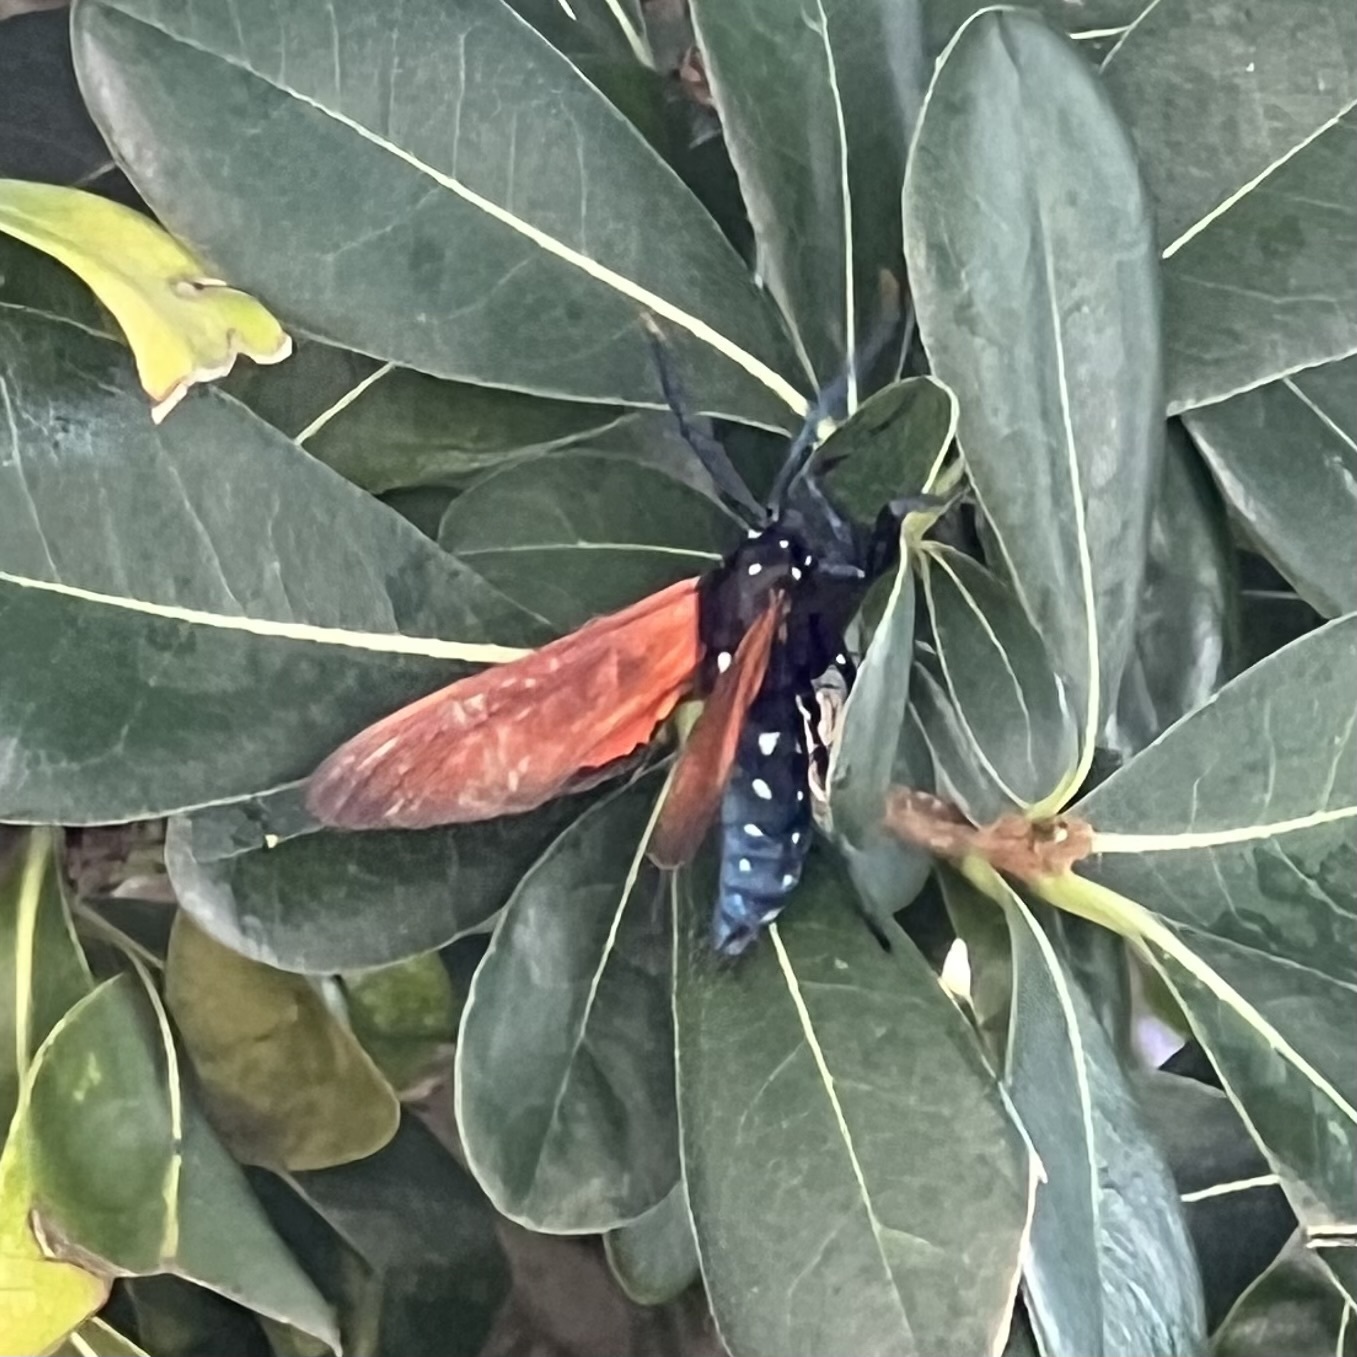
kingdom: Animalia
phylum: Arthropoda
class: Insecta
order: Lepidoptera
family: Erebidae
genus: Empyreuma
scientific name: Empyreuma pugione
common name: Spotted oleander caterpillar moth
